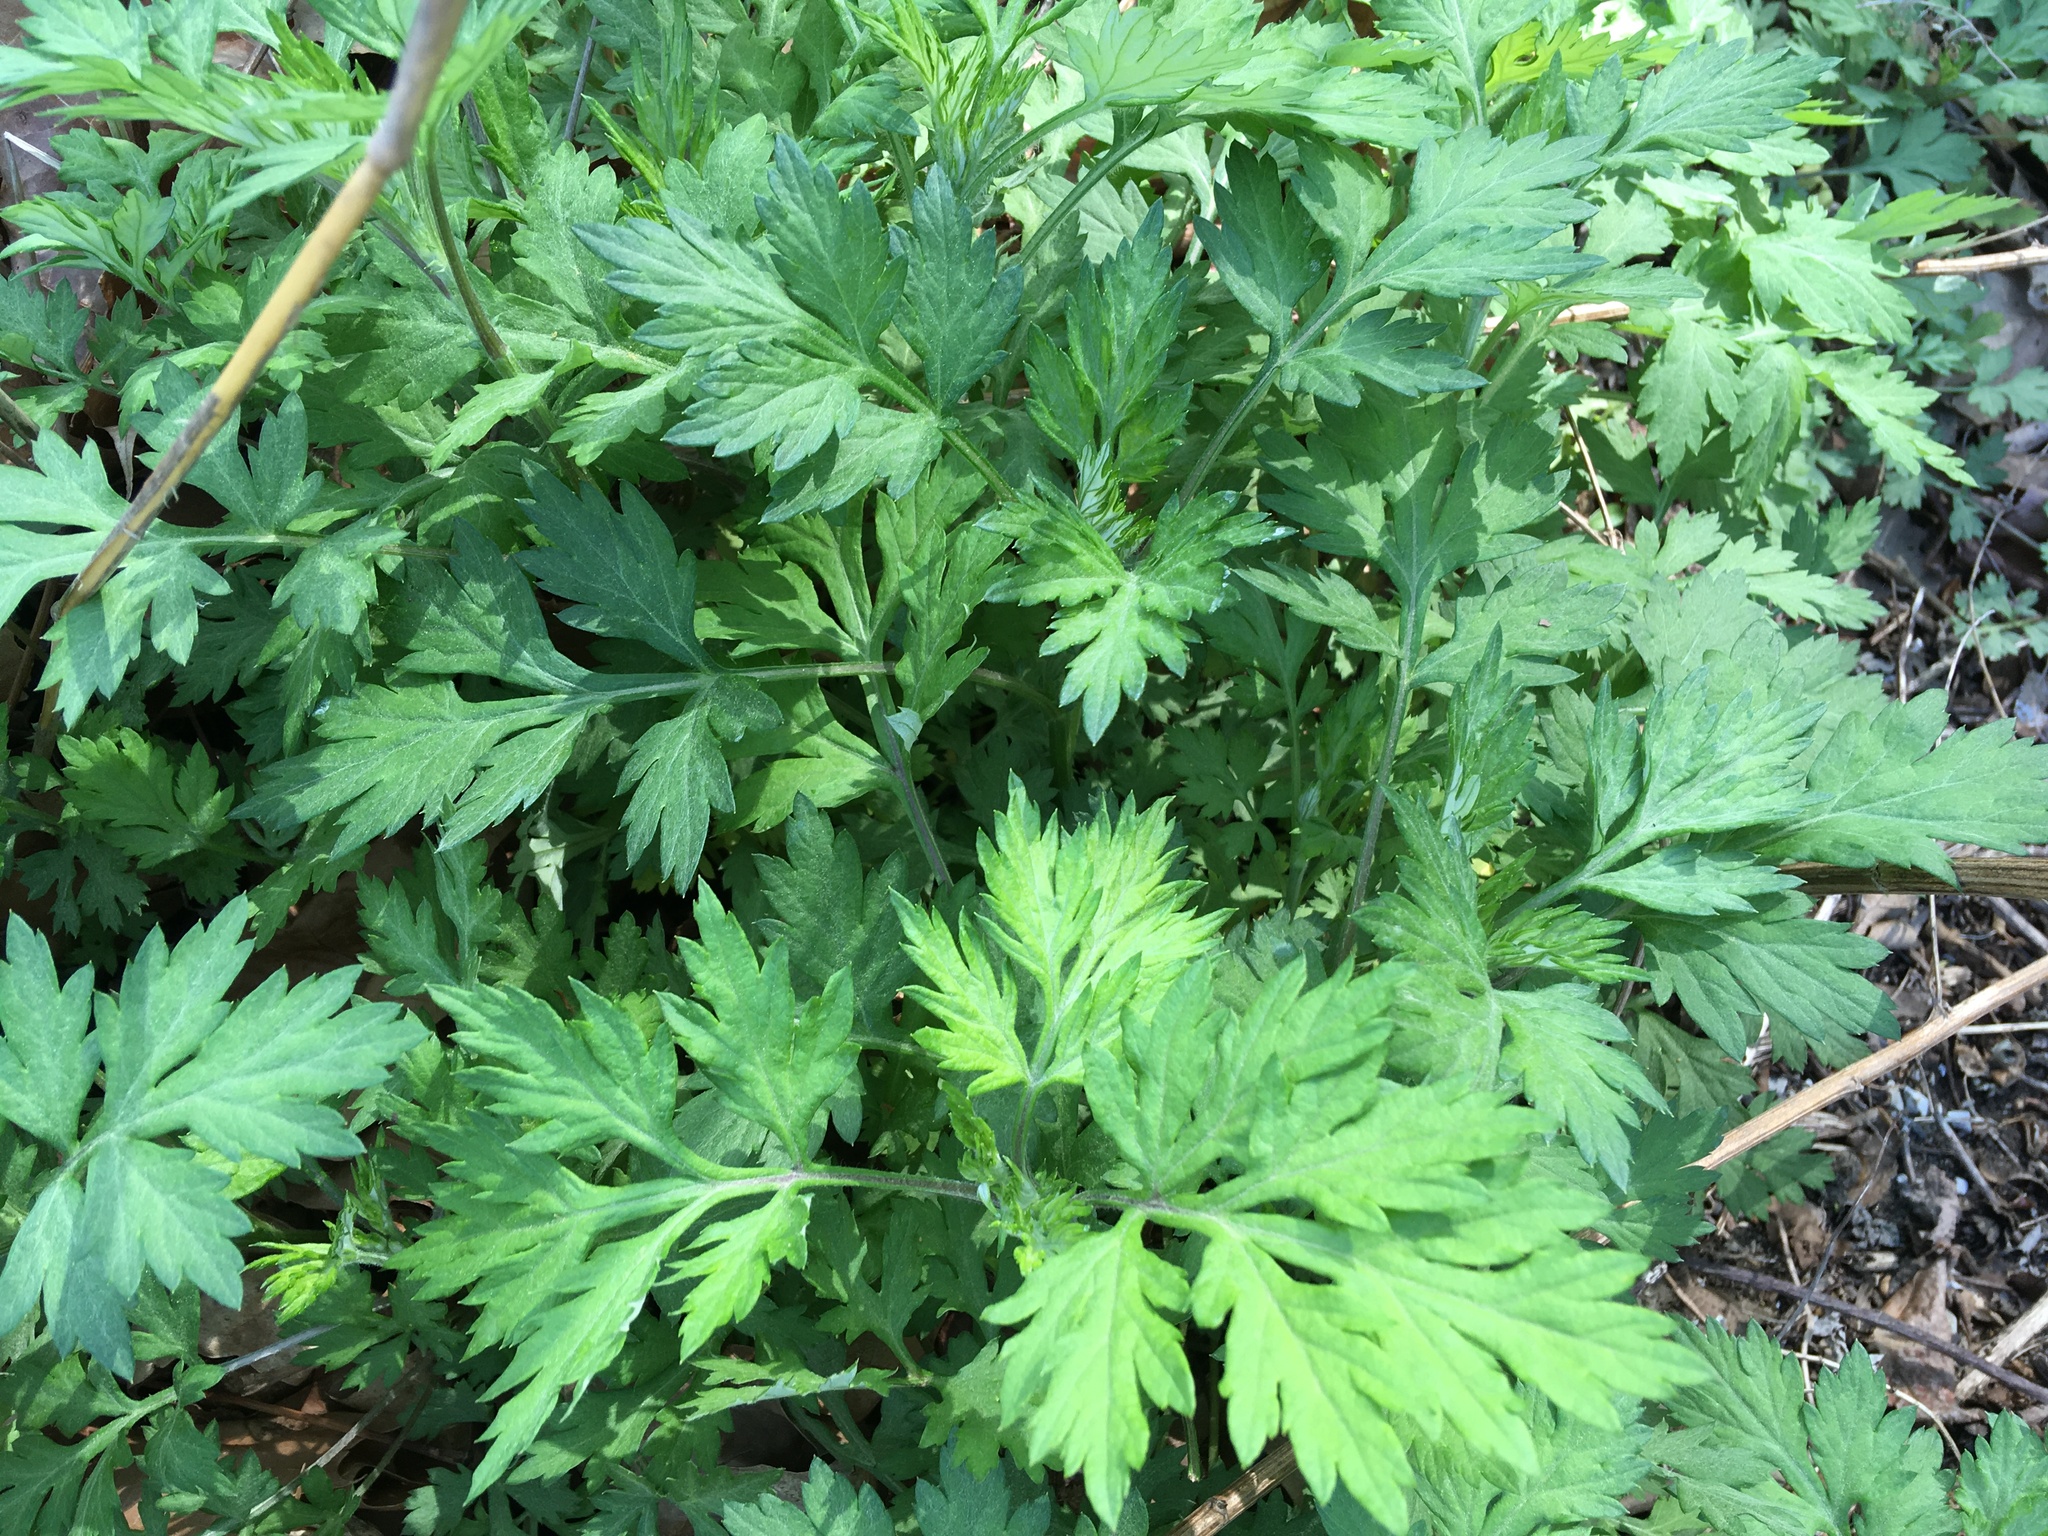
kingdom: Plantae
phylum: Tracheophyta
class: Magnoliopsida
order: Asterales
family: Asteraceae
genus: Artemisia
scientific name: Artemisia vulgaris
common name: Mugwort
